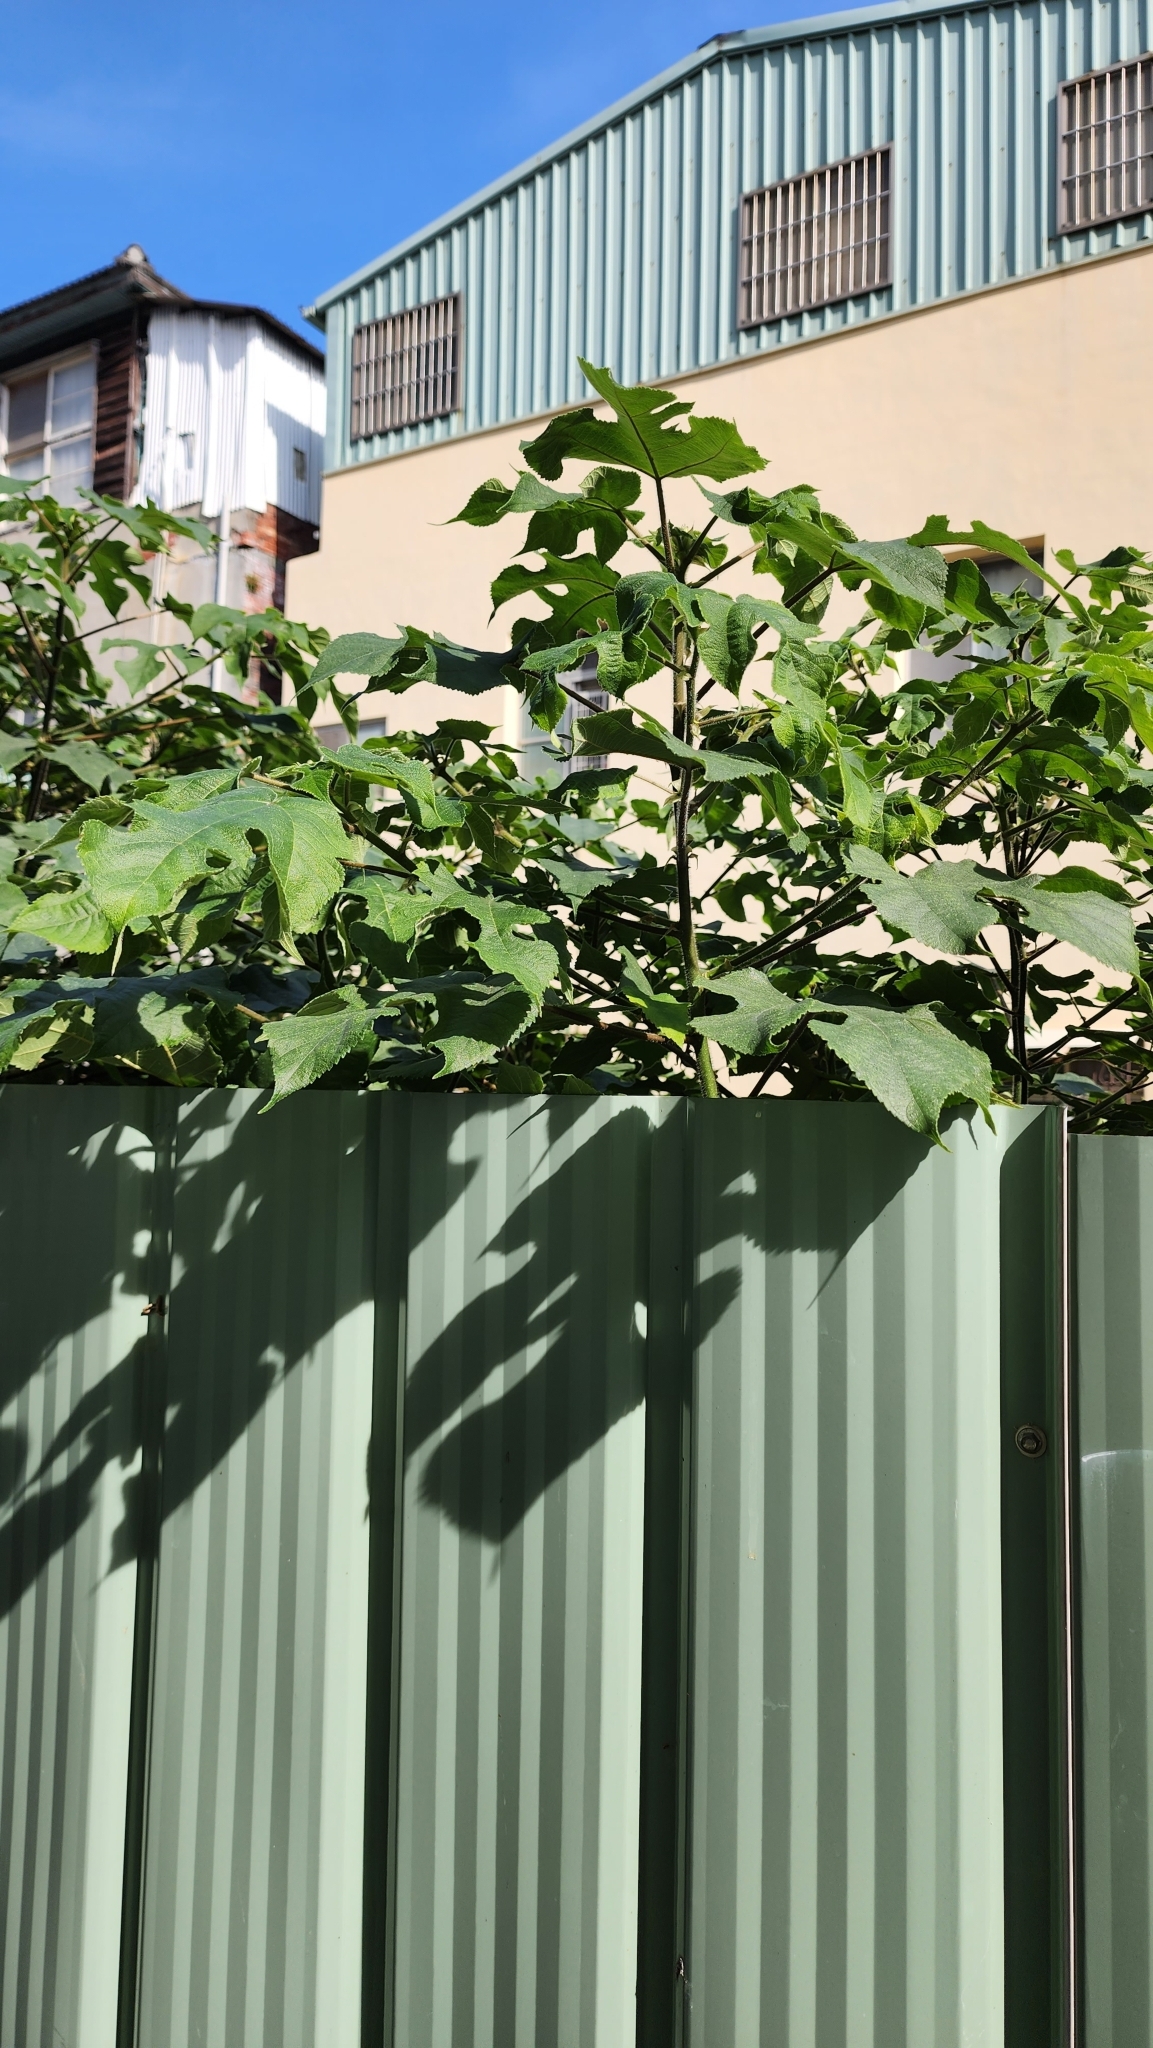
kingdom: Plantae
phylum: Tracheophyta
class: Magnoliopsida
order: Rosales
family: Moraceae
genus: Broussonetia
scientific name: Broussonetia papyrifera
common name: Paper mulberry
